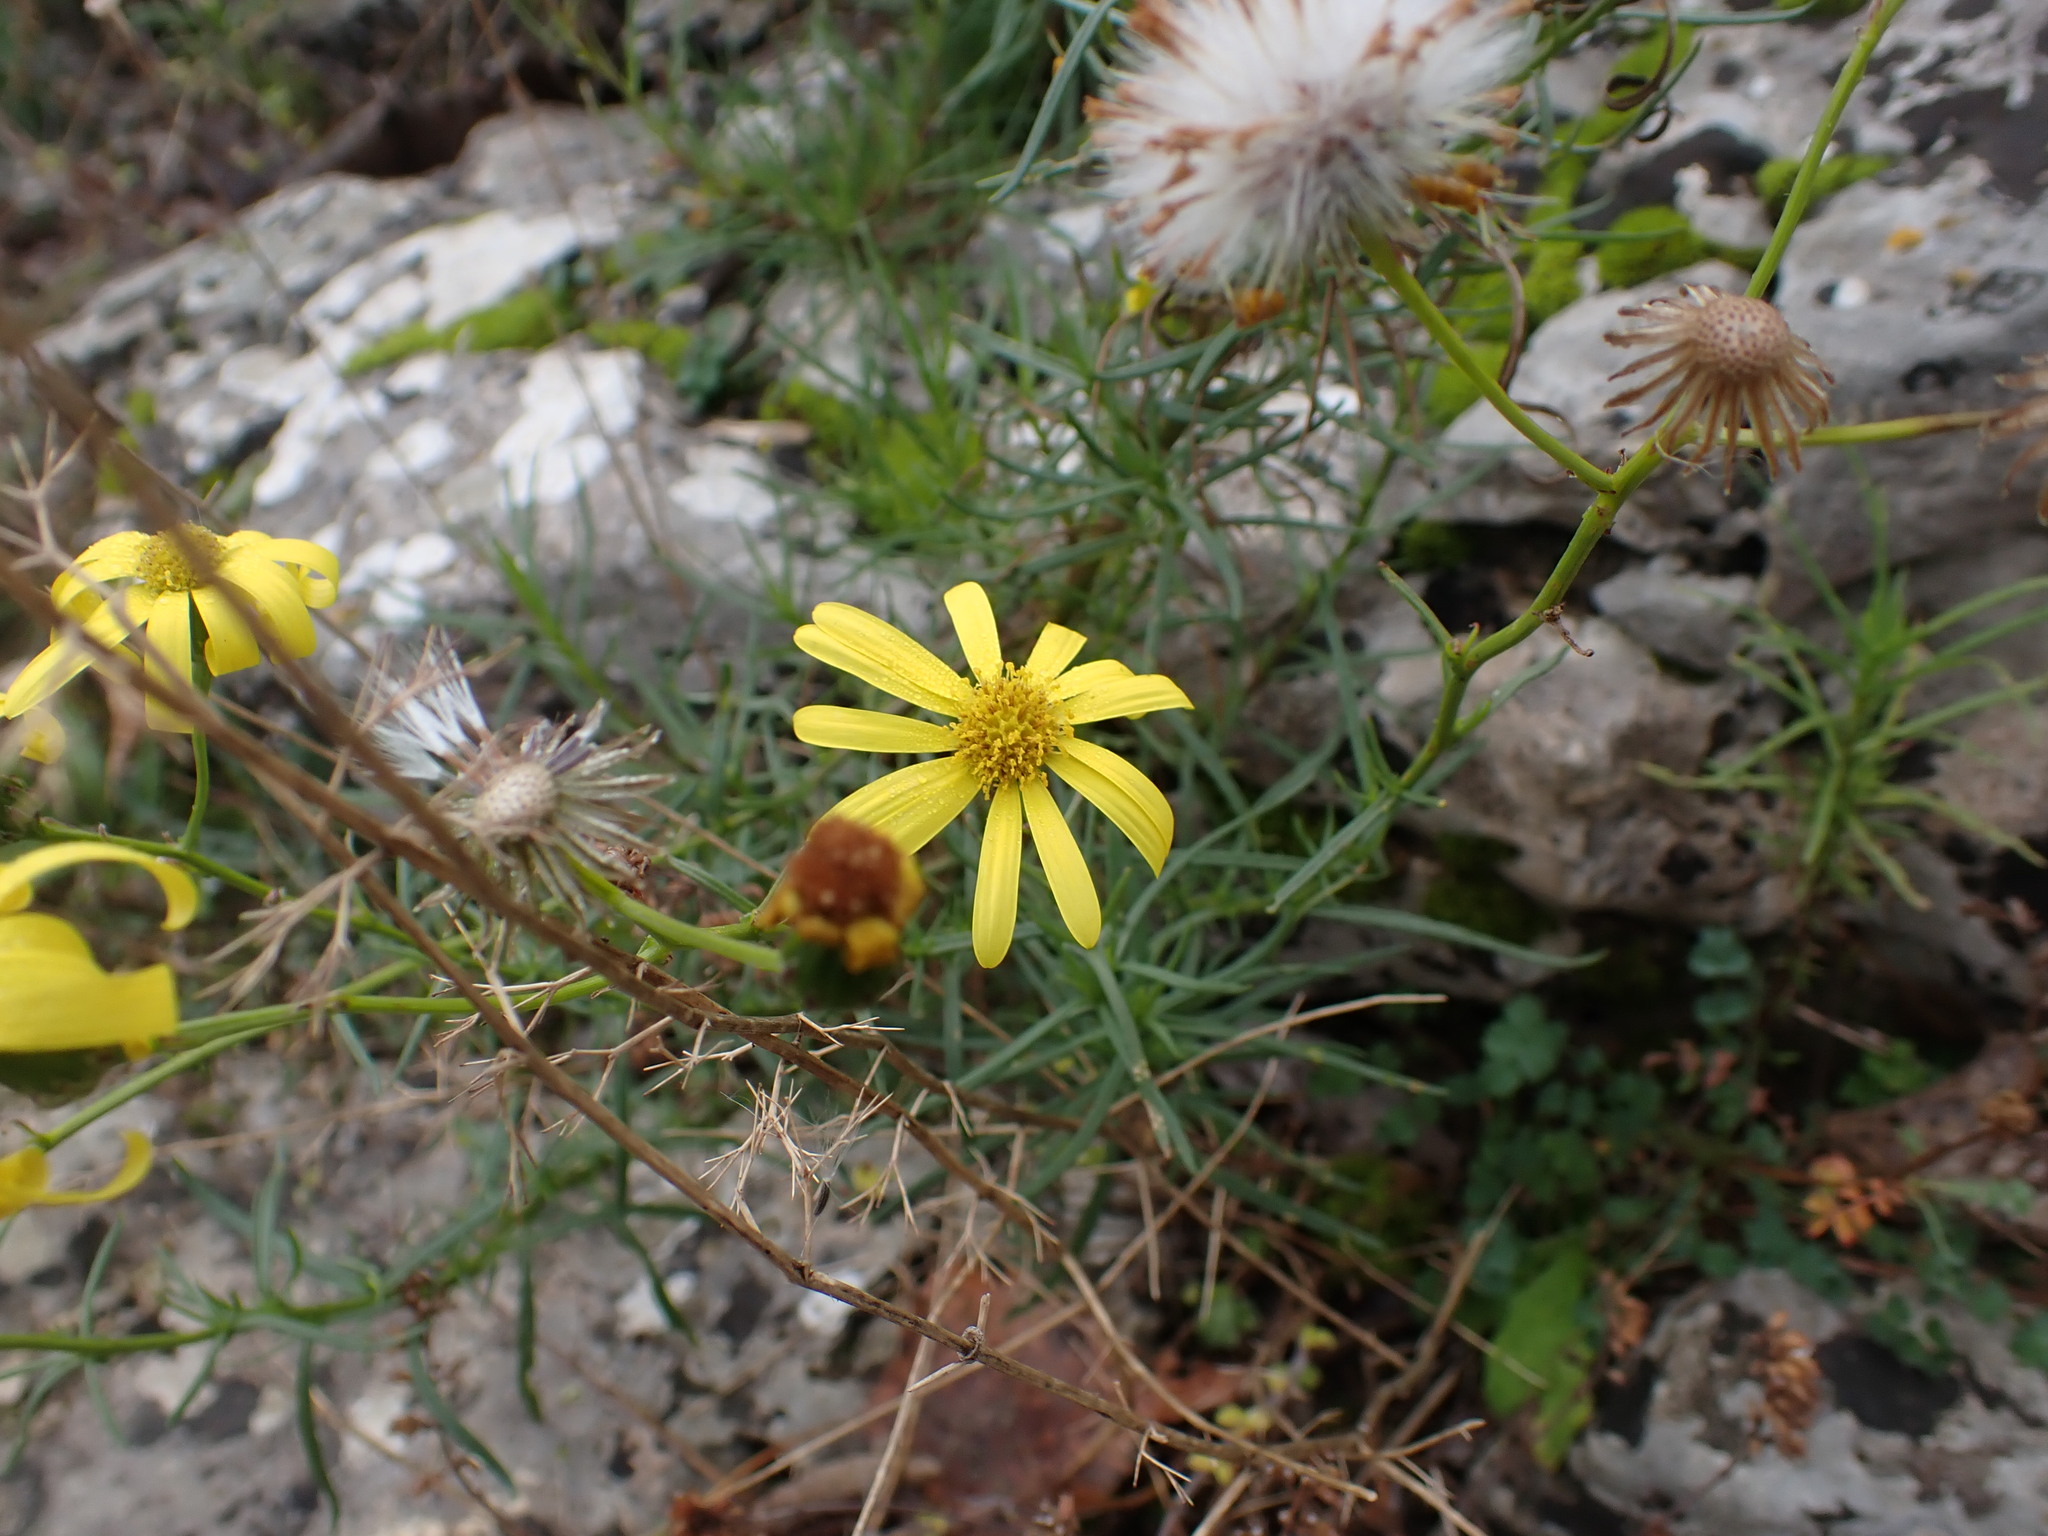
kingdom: Plantae
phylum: Tracheophyta
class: Magnoliopsida
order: Asterales
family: Asteraceae
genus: Senecio
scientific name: Senecio inaequidens
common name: Narrow-leaved ragwort
